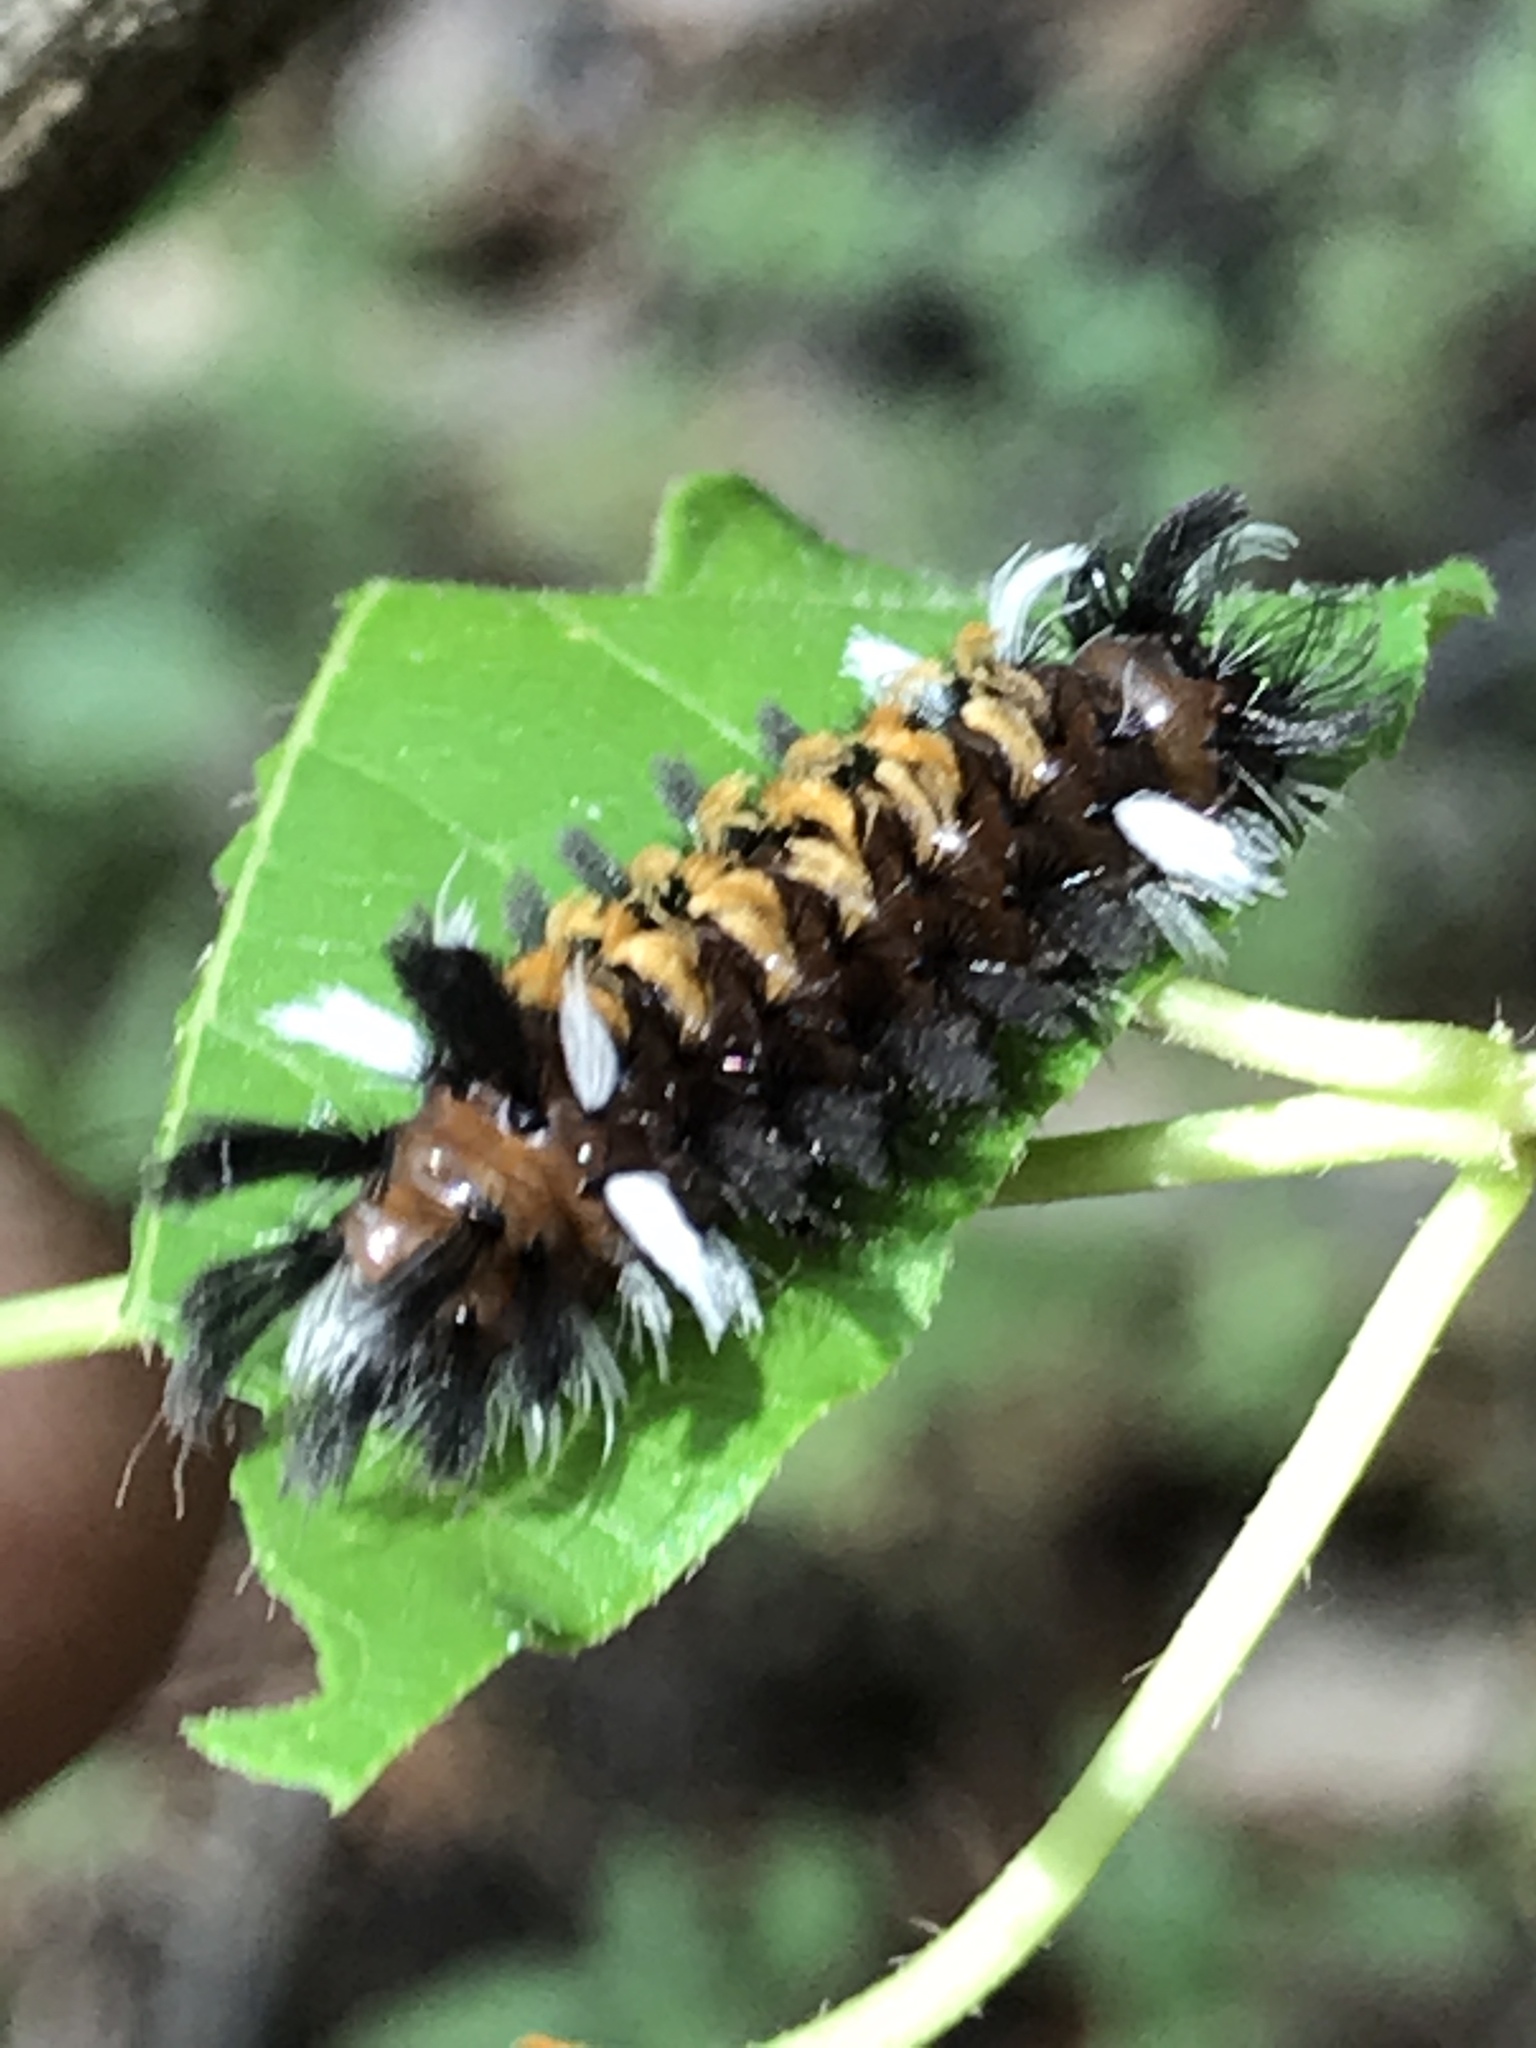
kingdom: Animalia
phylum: Arthropoda
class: Insecta
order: Lepidoptera
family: Erebidae
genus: Euchaetes
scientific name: Euchaetes egle
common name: Milkweed tussock moth
